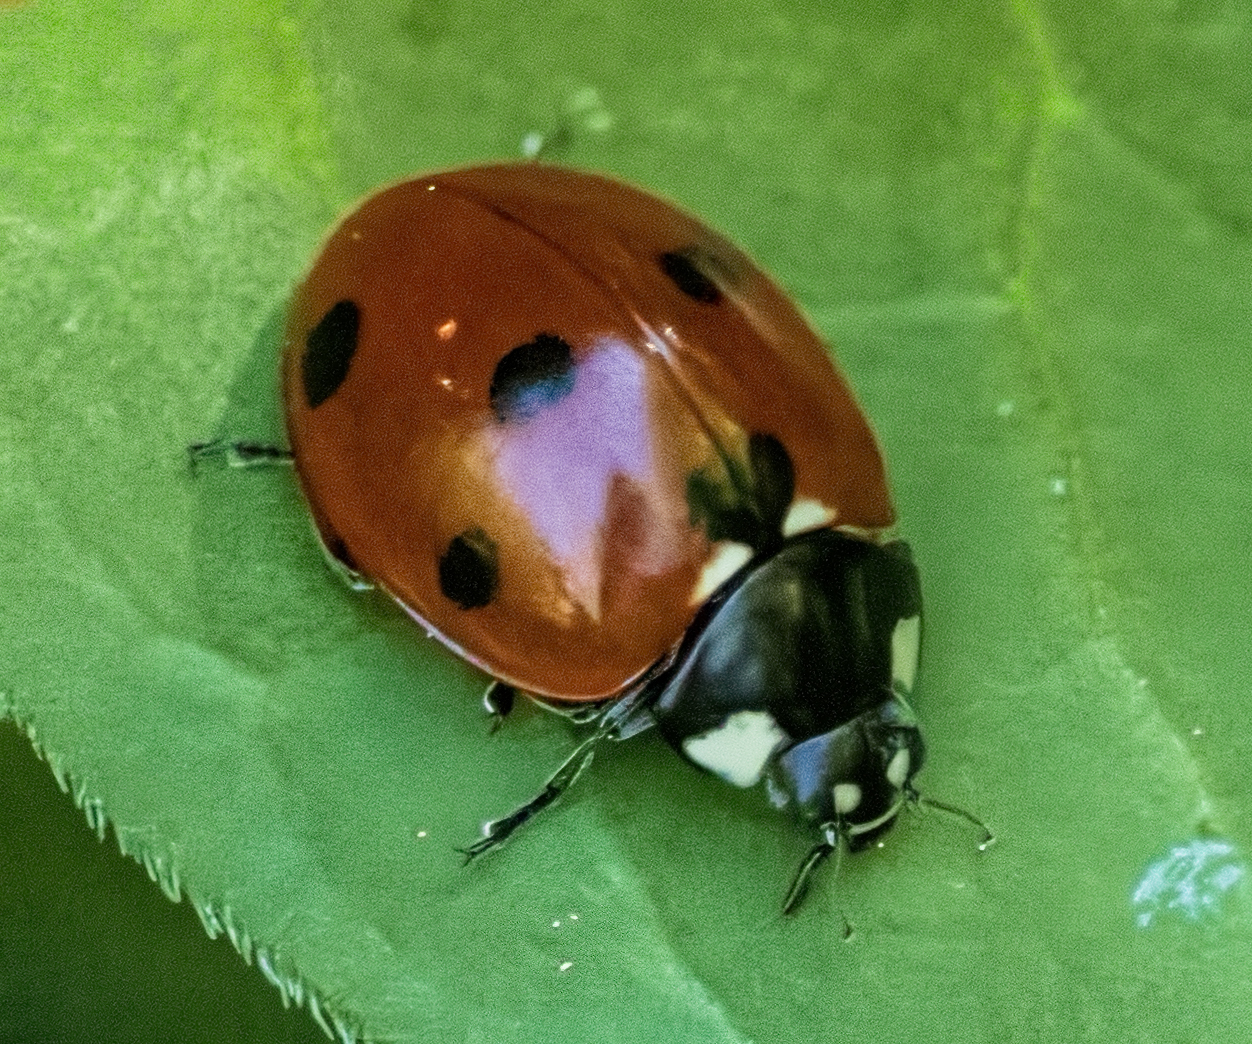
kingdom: Animalia
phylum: Arthropoda
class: Insecta
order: Coleoptera
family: Coccinellidae
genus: Coccinella
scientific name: Coccinella septempunctata
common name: Sevenspotted lady beetle
